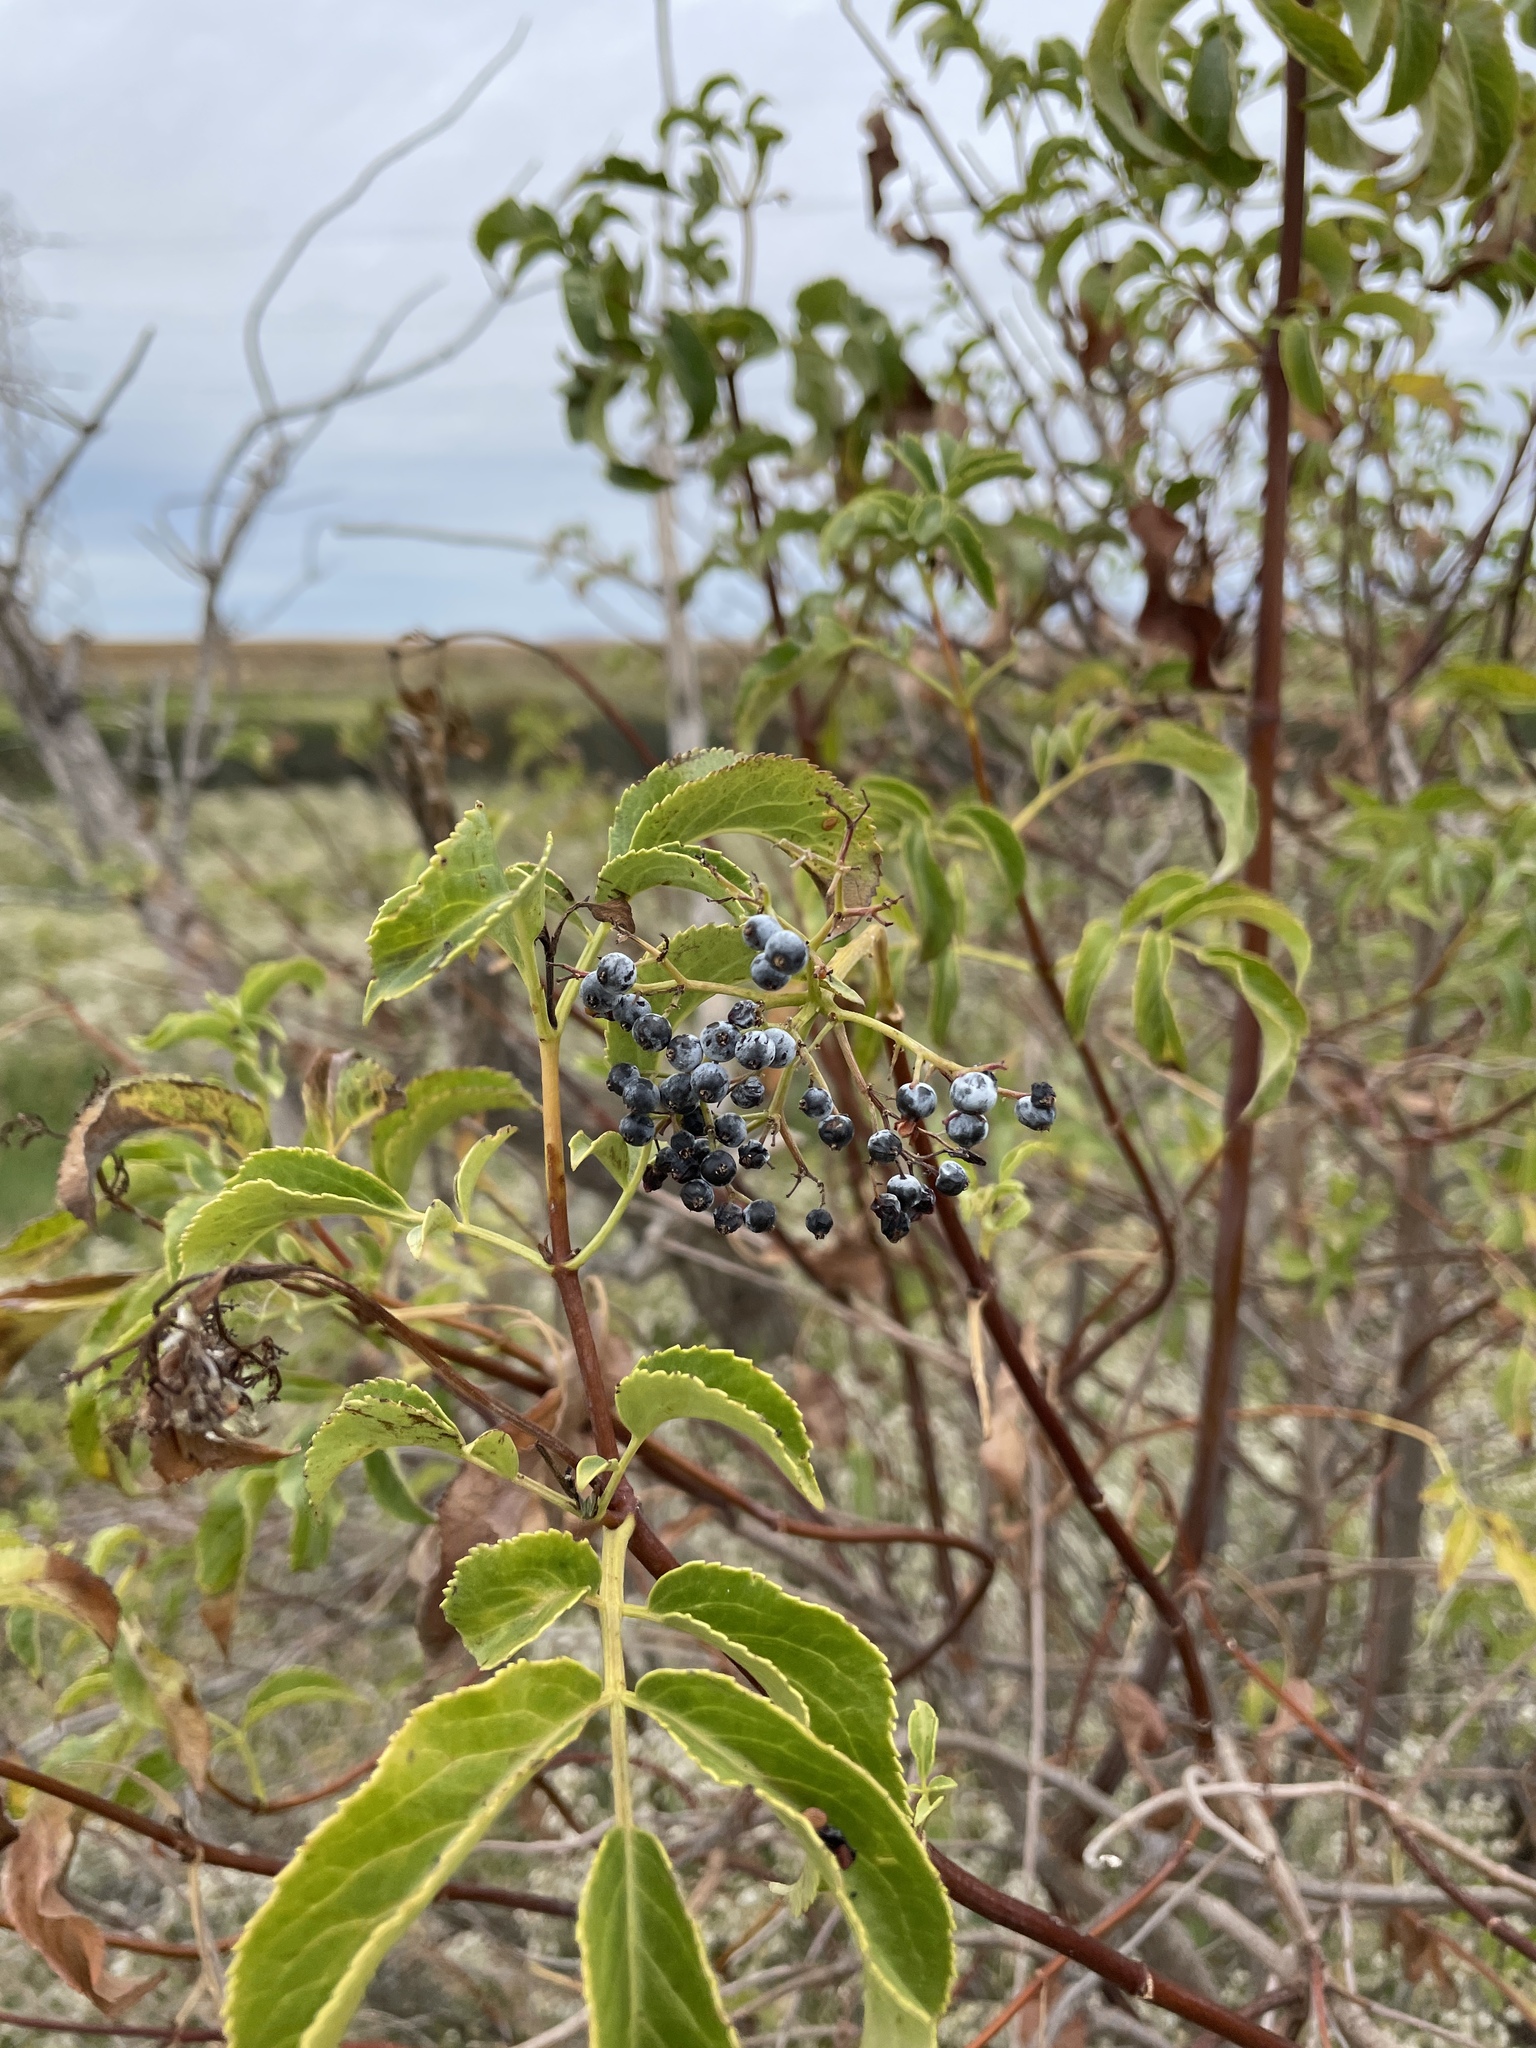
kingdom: Plantae
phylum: Tracheophyta
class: Magnoliopsida
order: Dipsacales
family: Viburnaceae
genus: Sambucus
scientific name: Sambucus cerulea
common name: Blue elder
